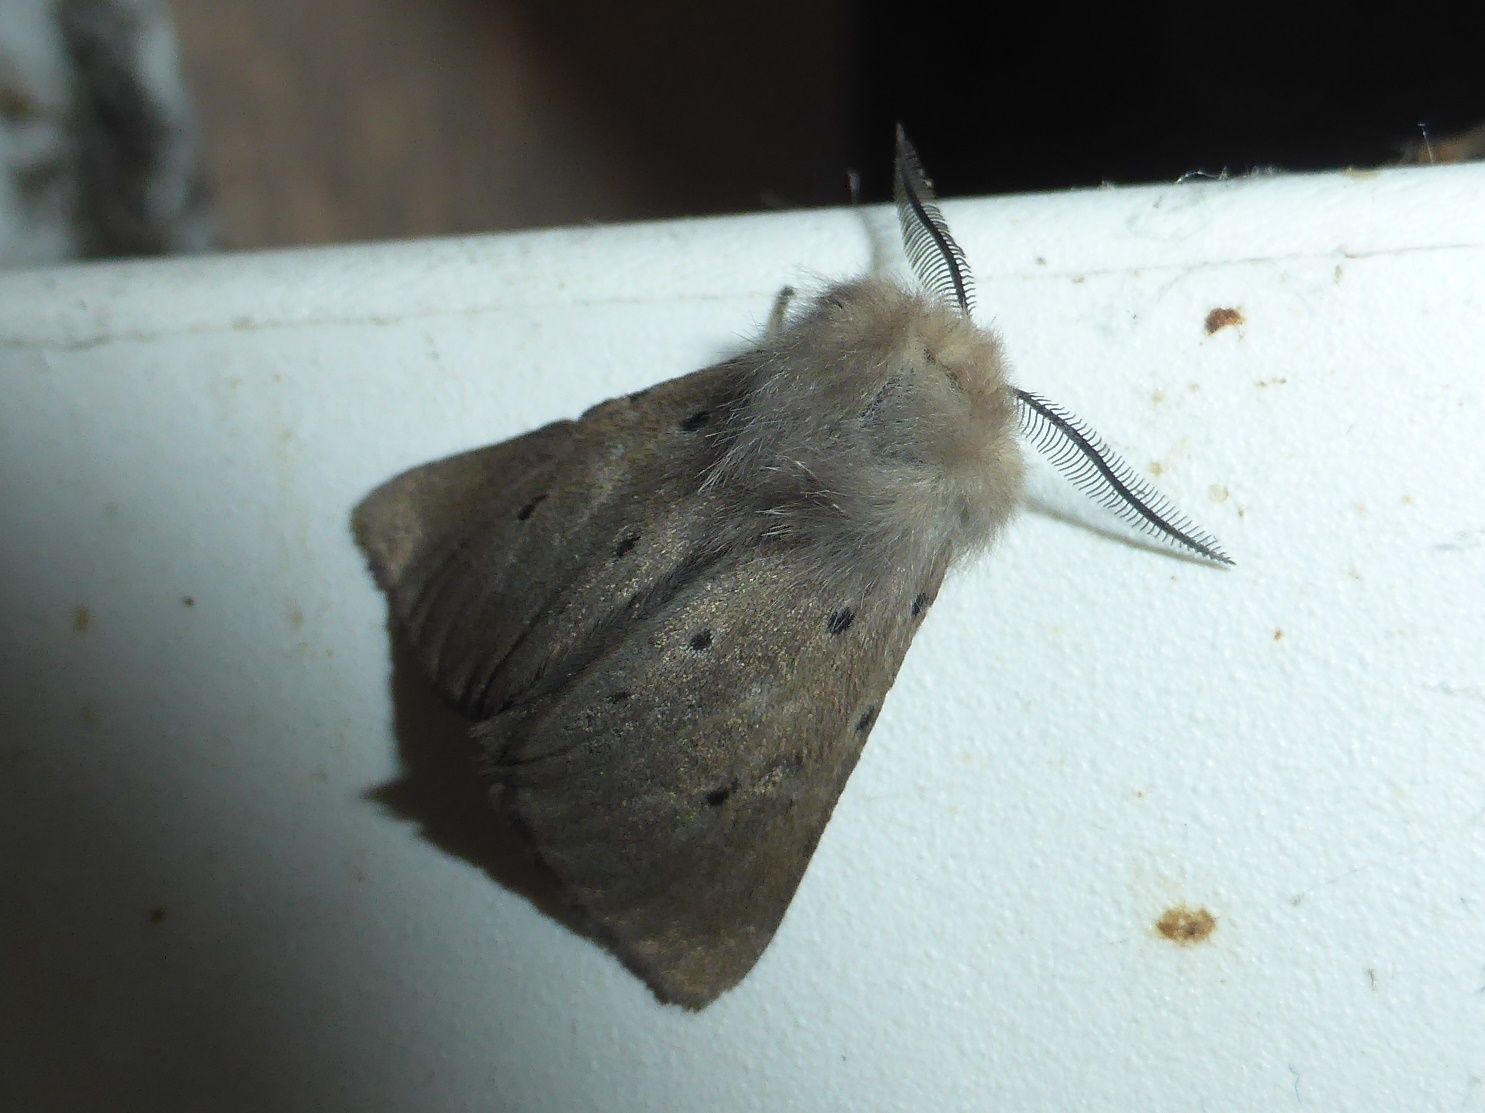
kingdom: Animalia
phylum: Arthropoda
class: Insecta
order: Lepidoptera
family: Erebidae
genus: Diaphora
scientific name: Diaphora mendica
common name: Muslin moth
